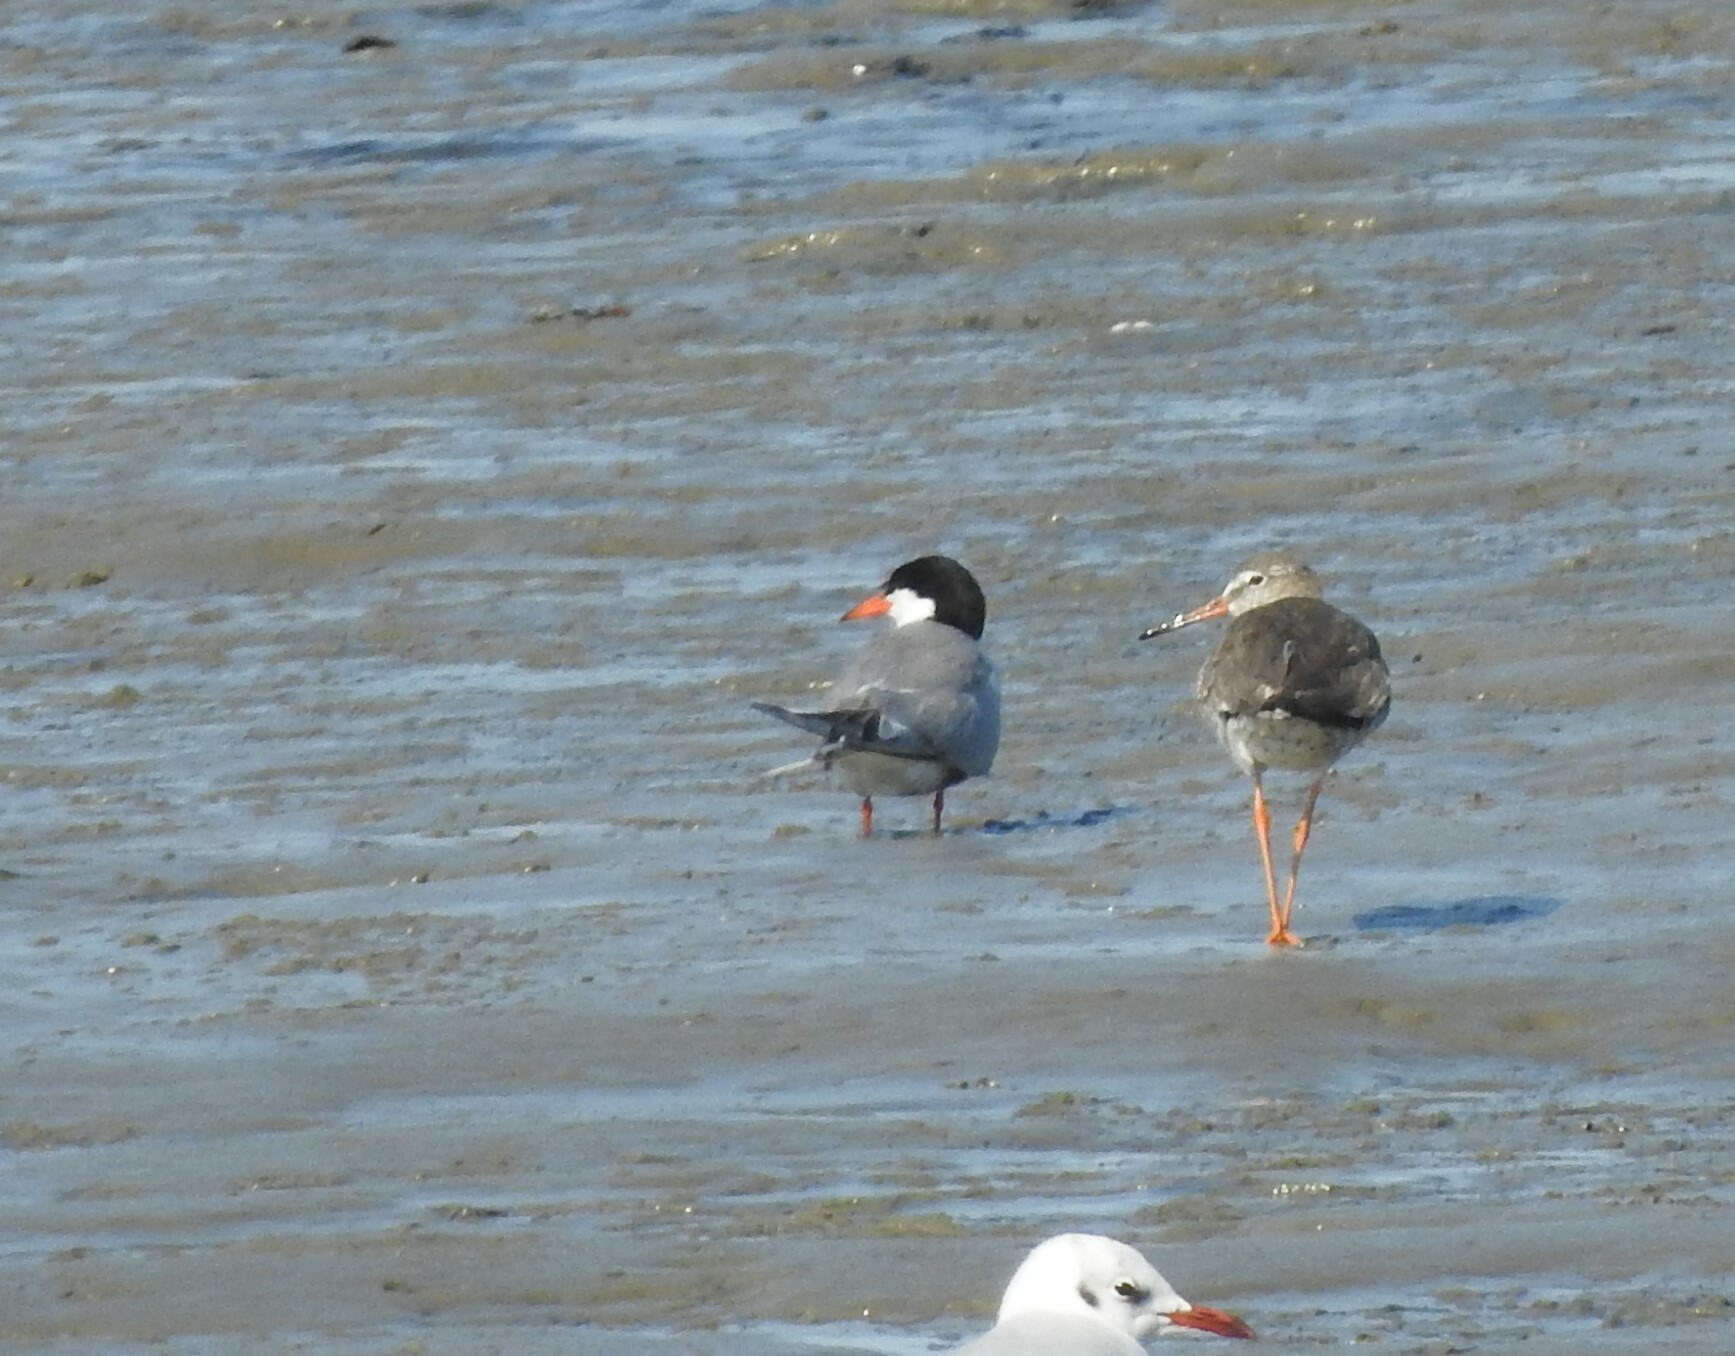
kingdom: Animalia
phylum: Chordata
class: Aves
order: Charadriiformes
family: Laridae
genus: Sterna
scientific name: Sterna hirundo
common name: Common tern
